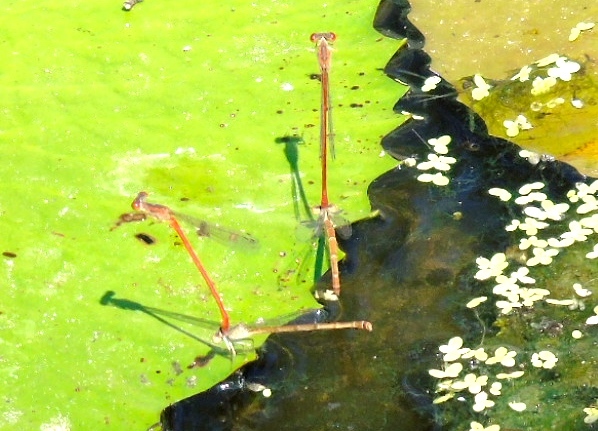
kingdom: Animalia
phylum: Arthropoda
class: Insecta
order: Odonata
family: Coenagrionidae
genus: Telebasis
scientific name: Telebasis
